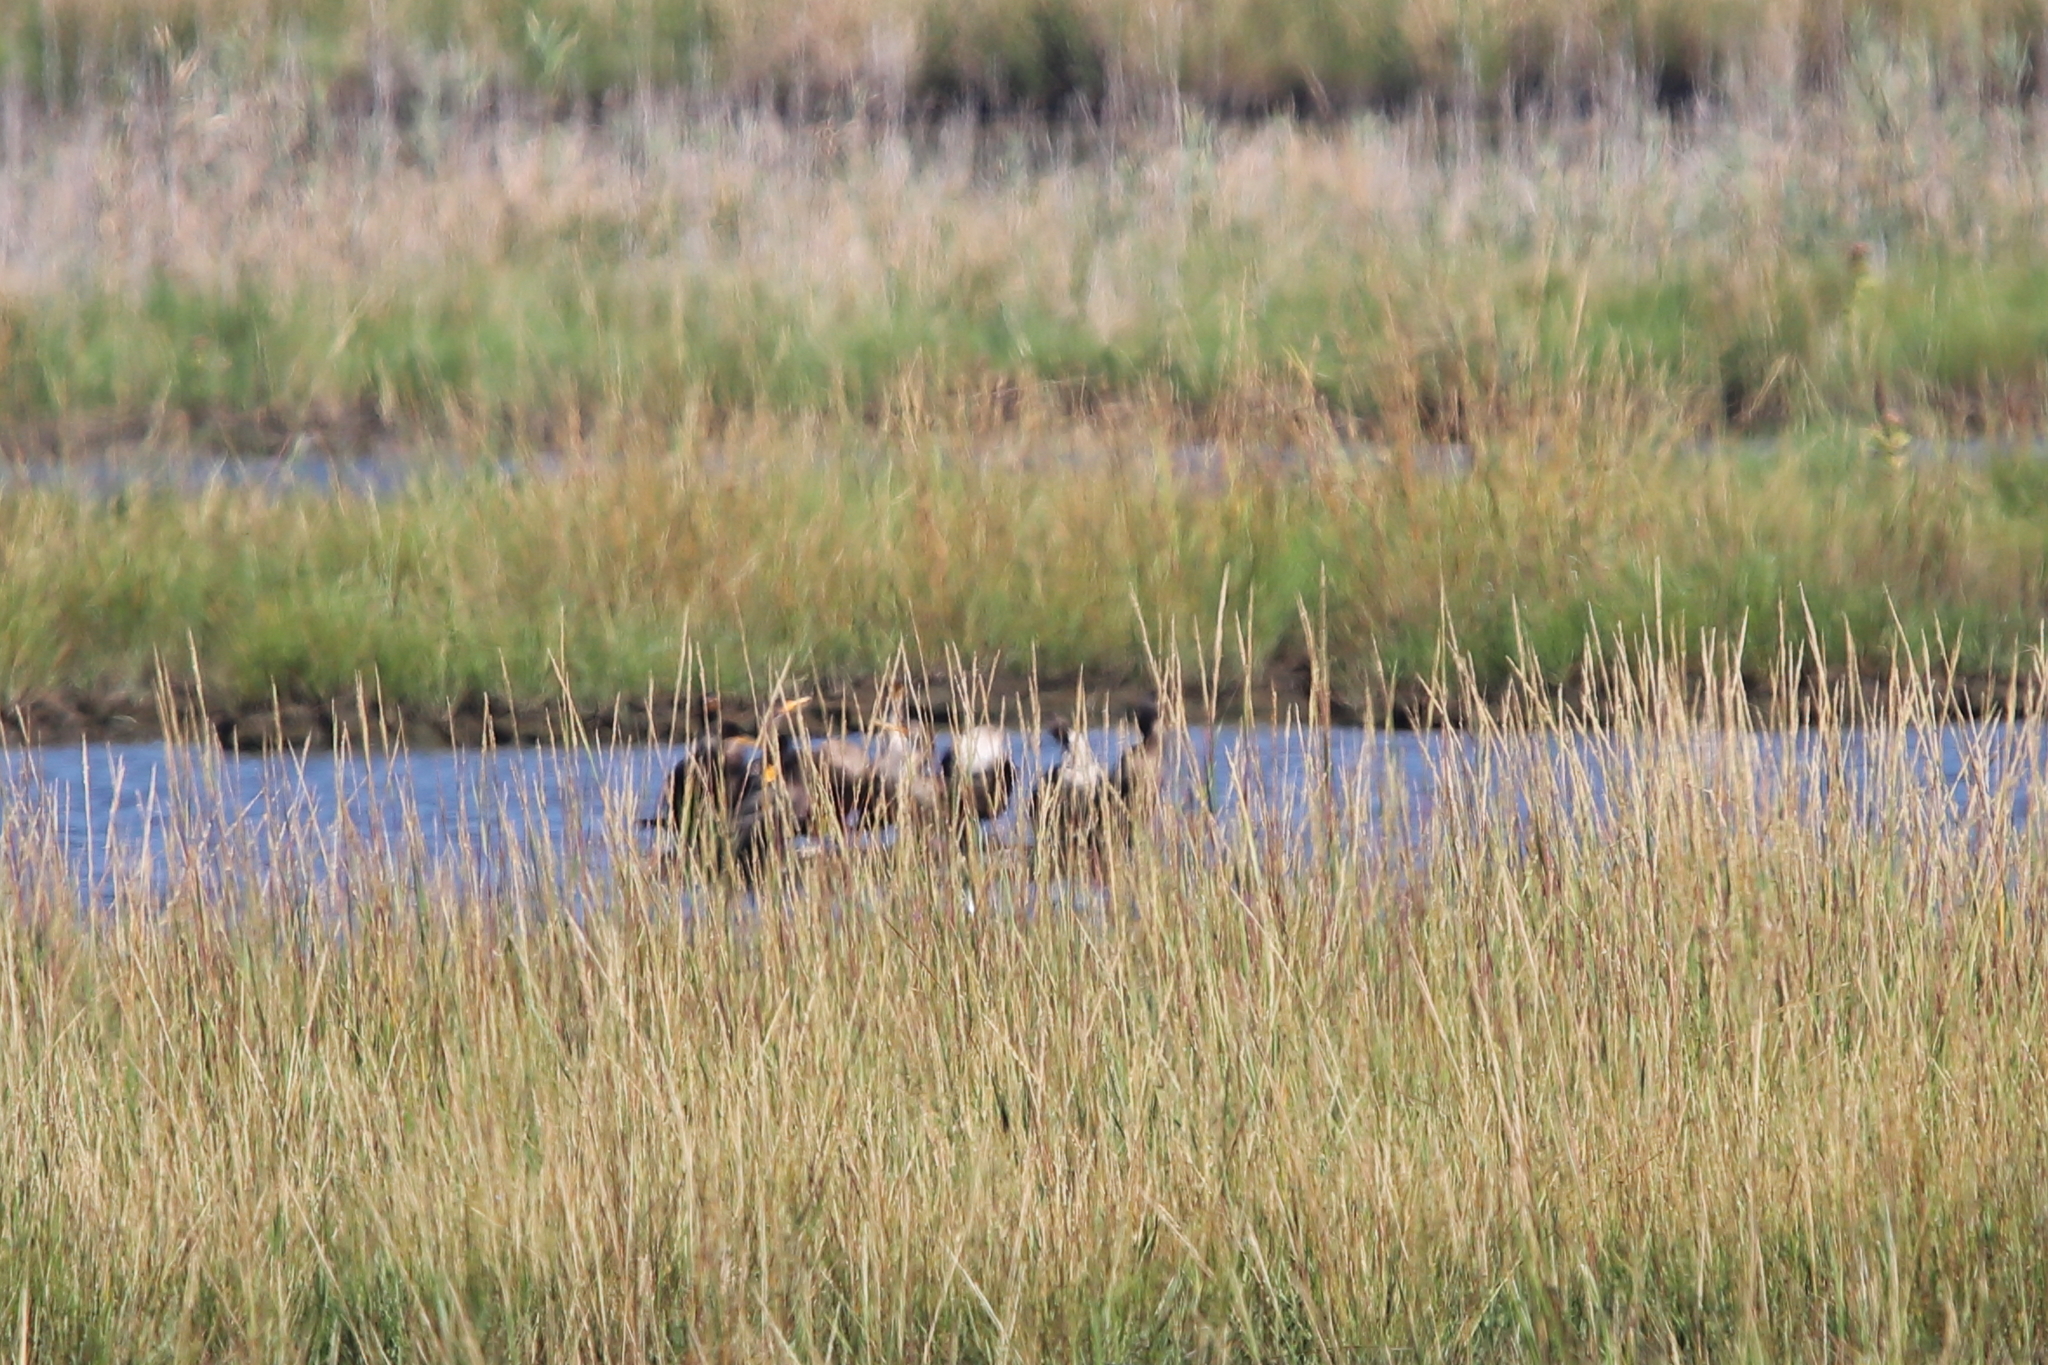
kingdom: Animalia
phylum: Chordata
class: Aves
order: Suliformes
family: Phalacrocoracidae
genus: Phalacrocorax
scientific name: Phalacrocorax auritus
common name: Double-crested cormorant
